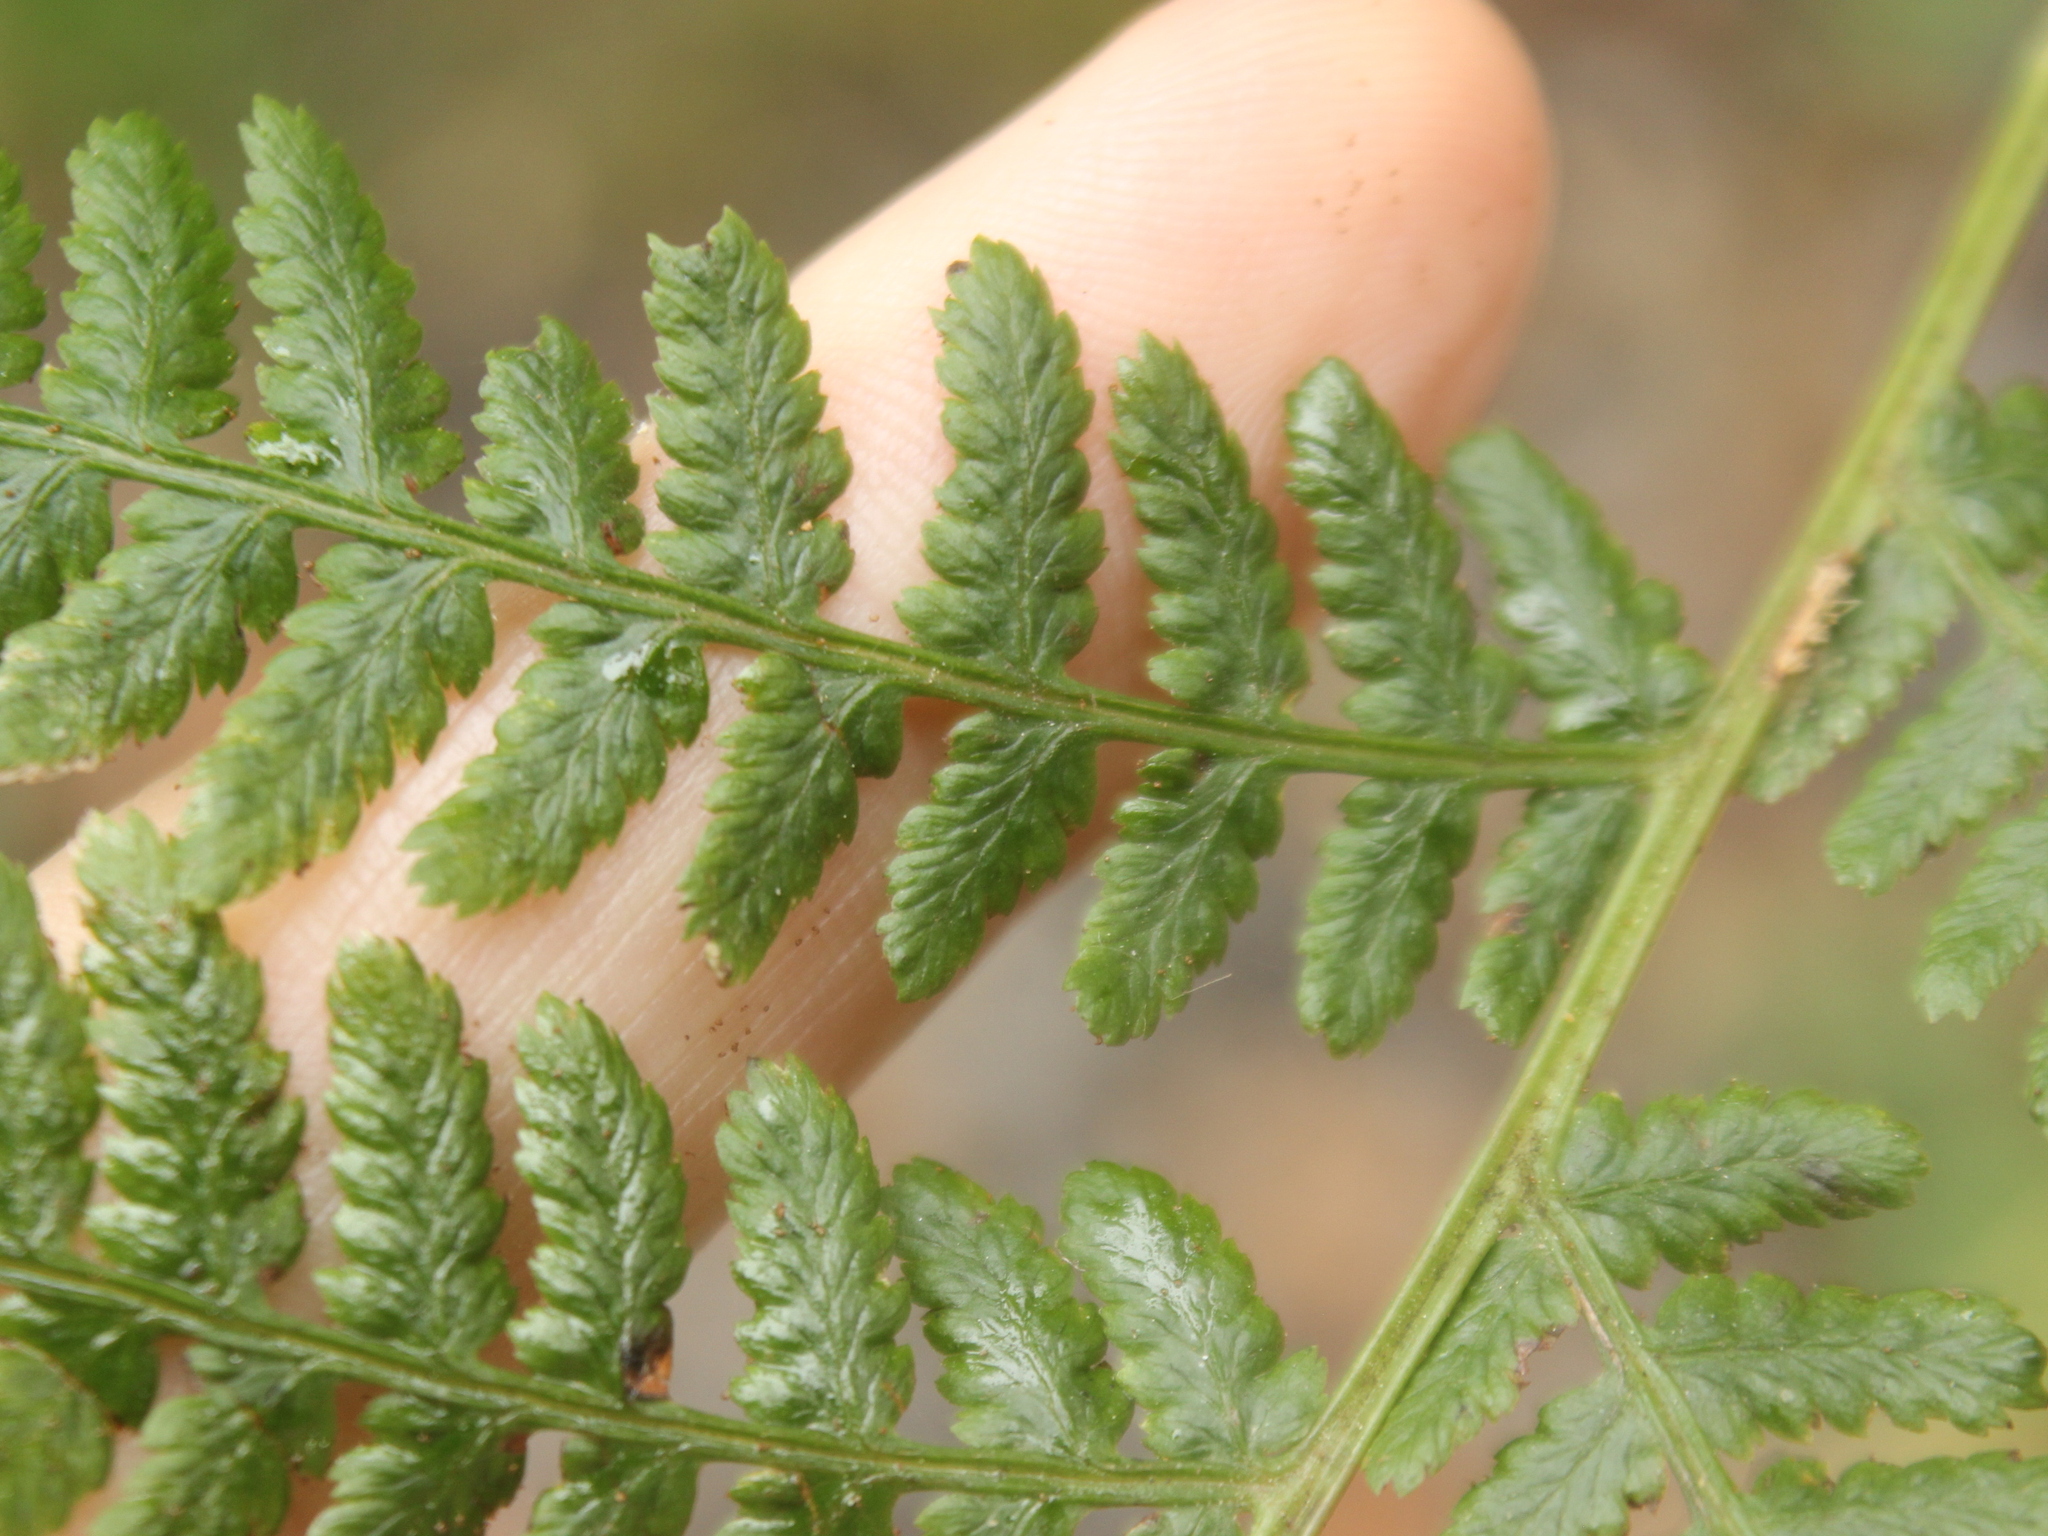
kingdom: Plantae
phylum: Tracheophyta
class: Polypodiopsida
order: Polypodiales
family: Dennstaedtiaceae
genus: Hypolepis
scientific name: Hypolepis ambigua
